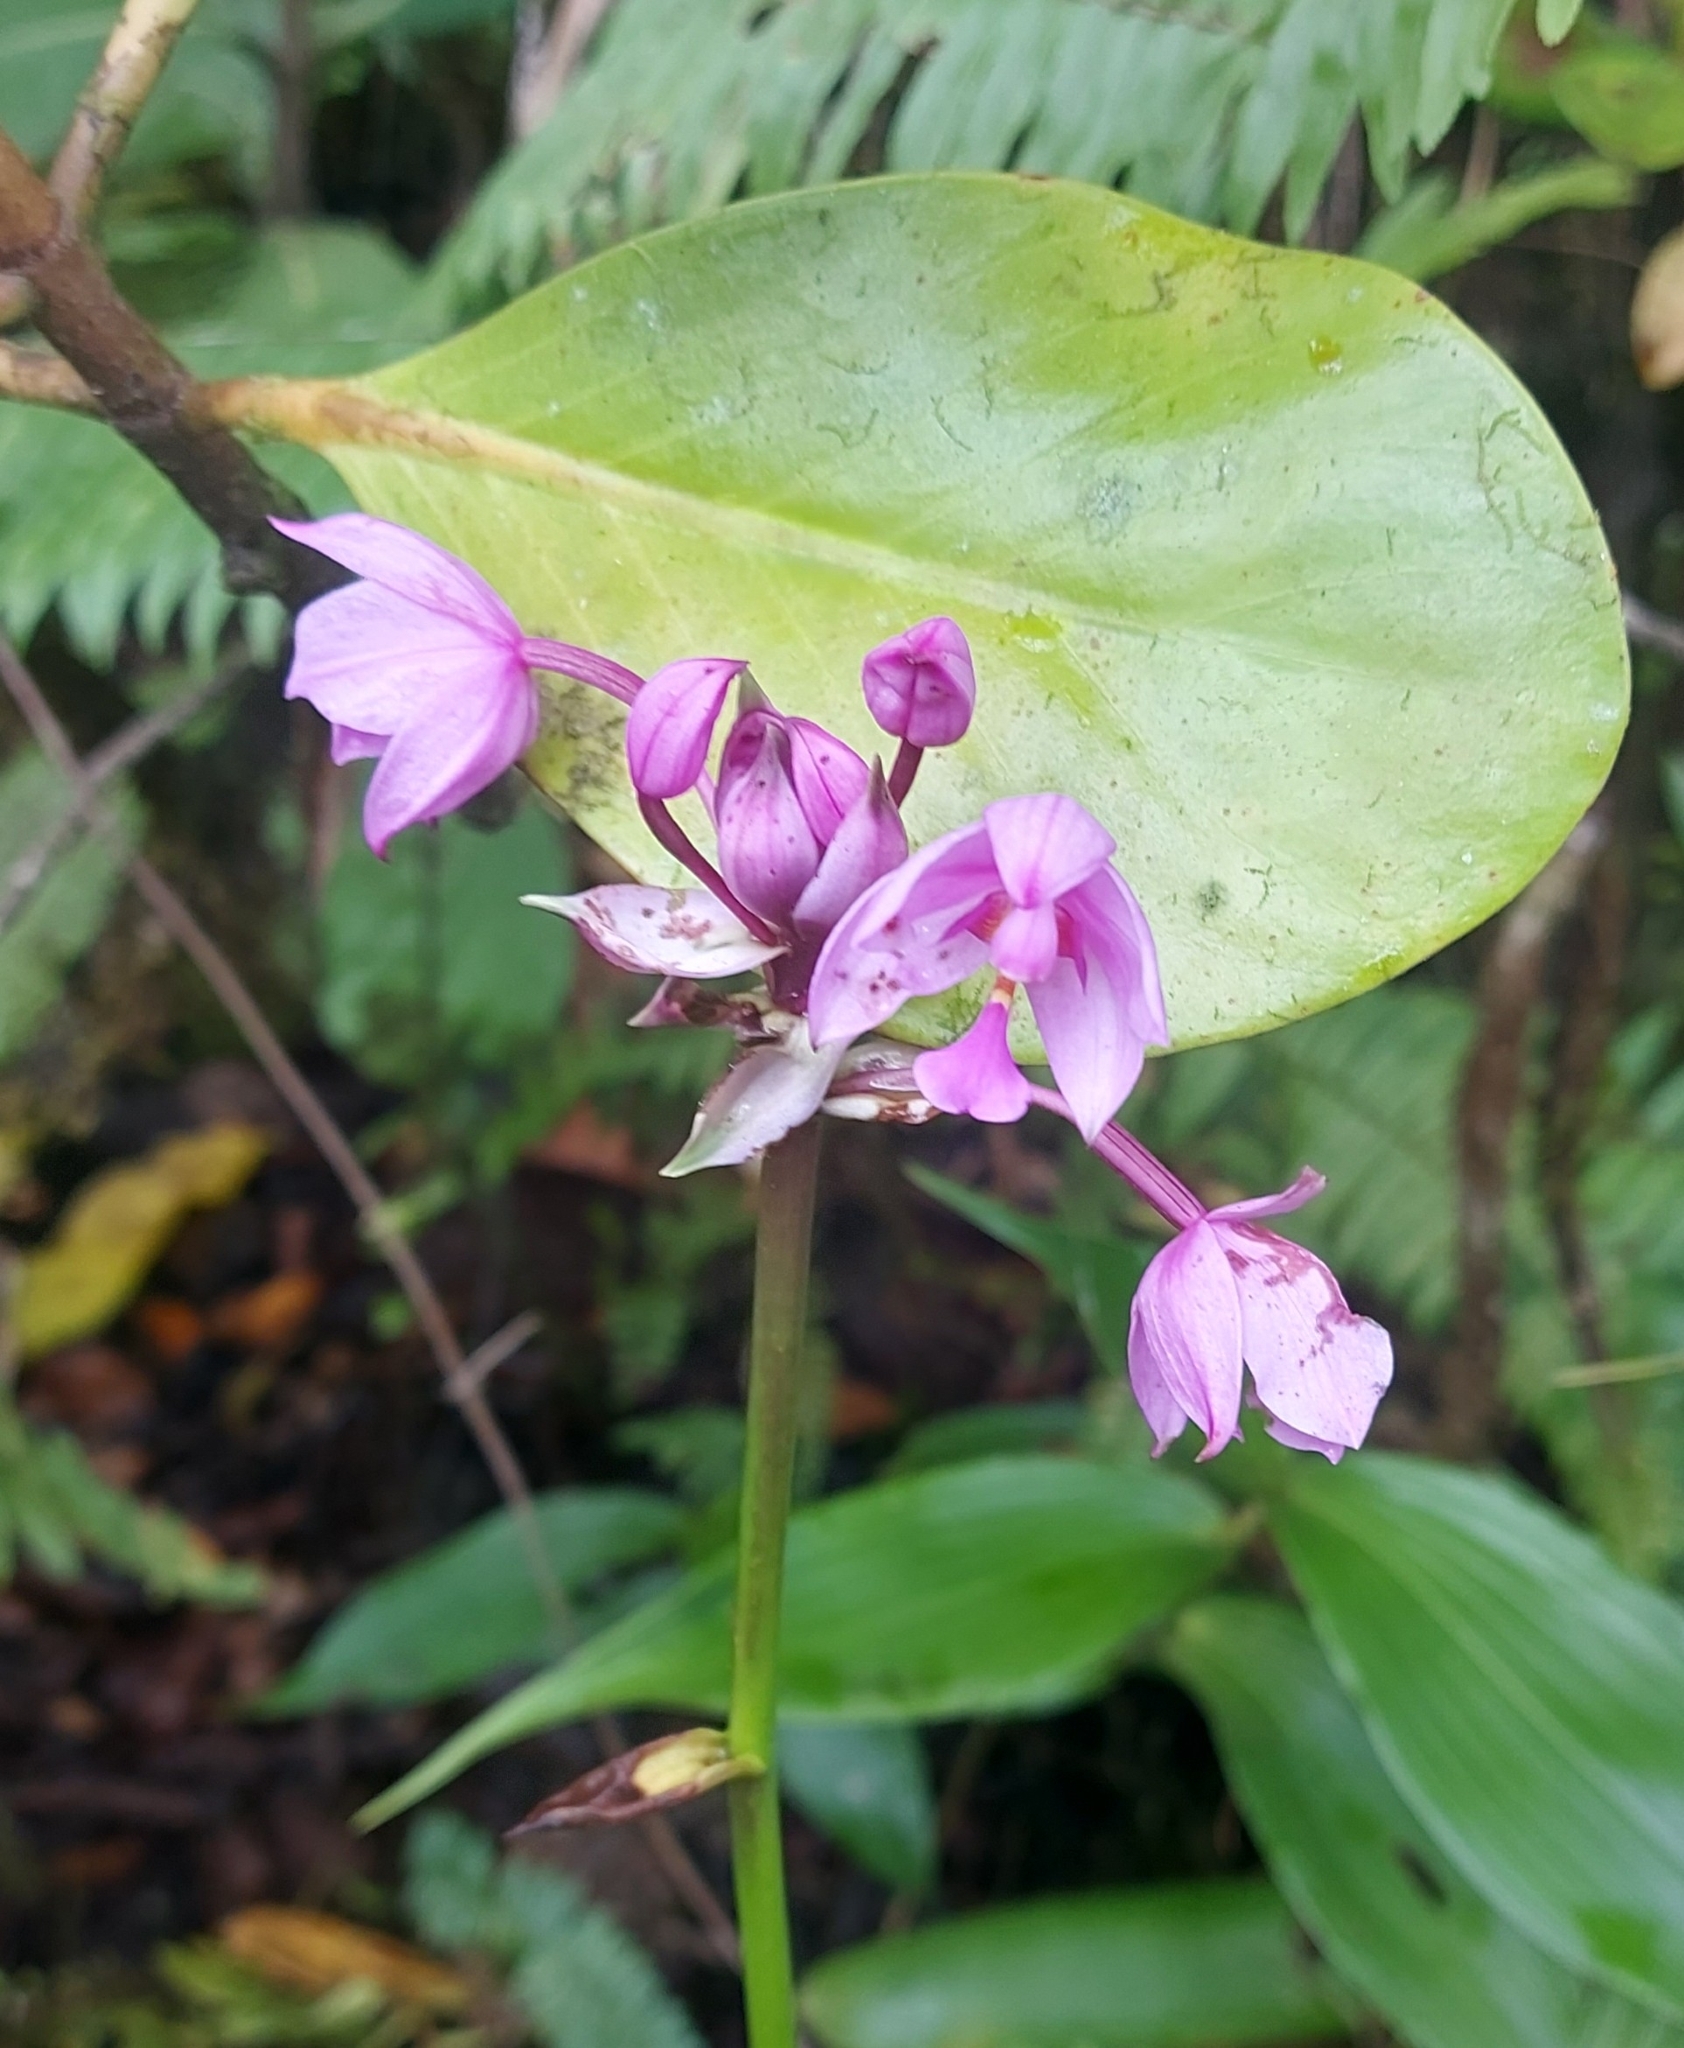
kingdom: Plantae
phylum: Tracheophyta
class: Liliopsida
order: Asparagales
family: Orchidaceae
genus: Spathoglottis
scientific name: Spathoglottis plicata
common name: Philippine ground orchid
